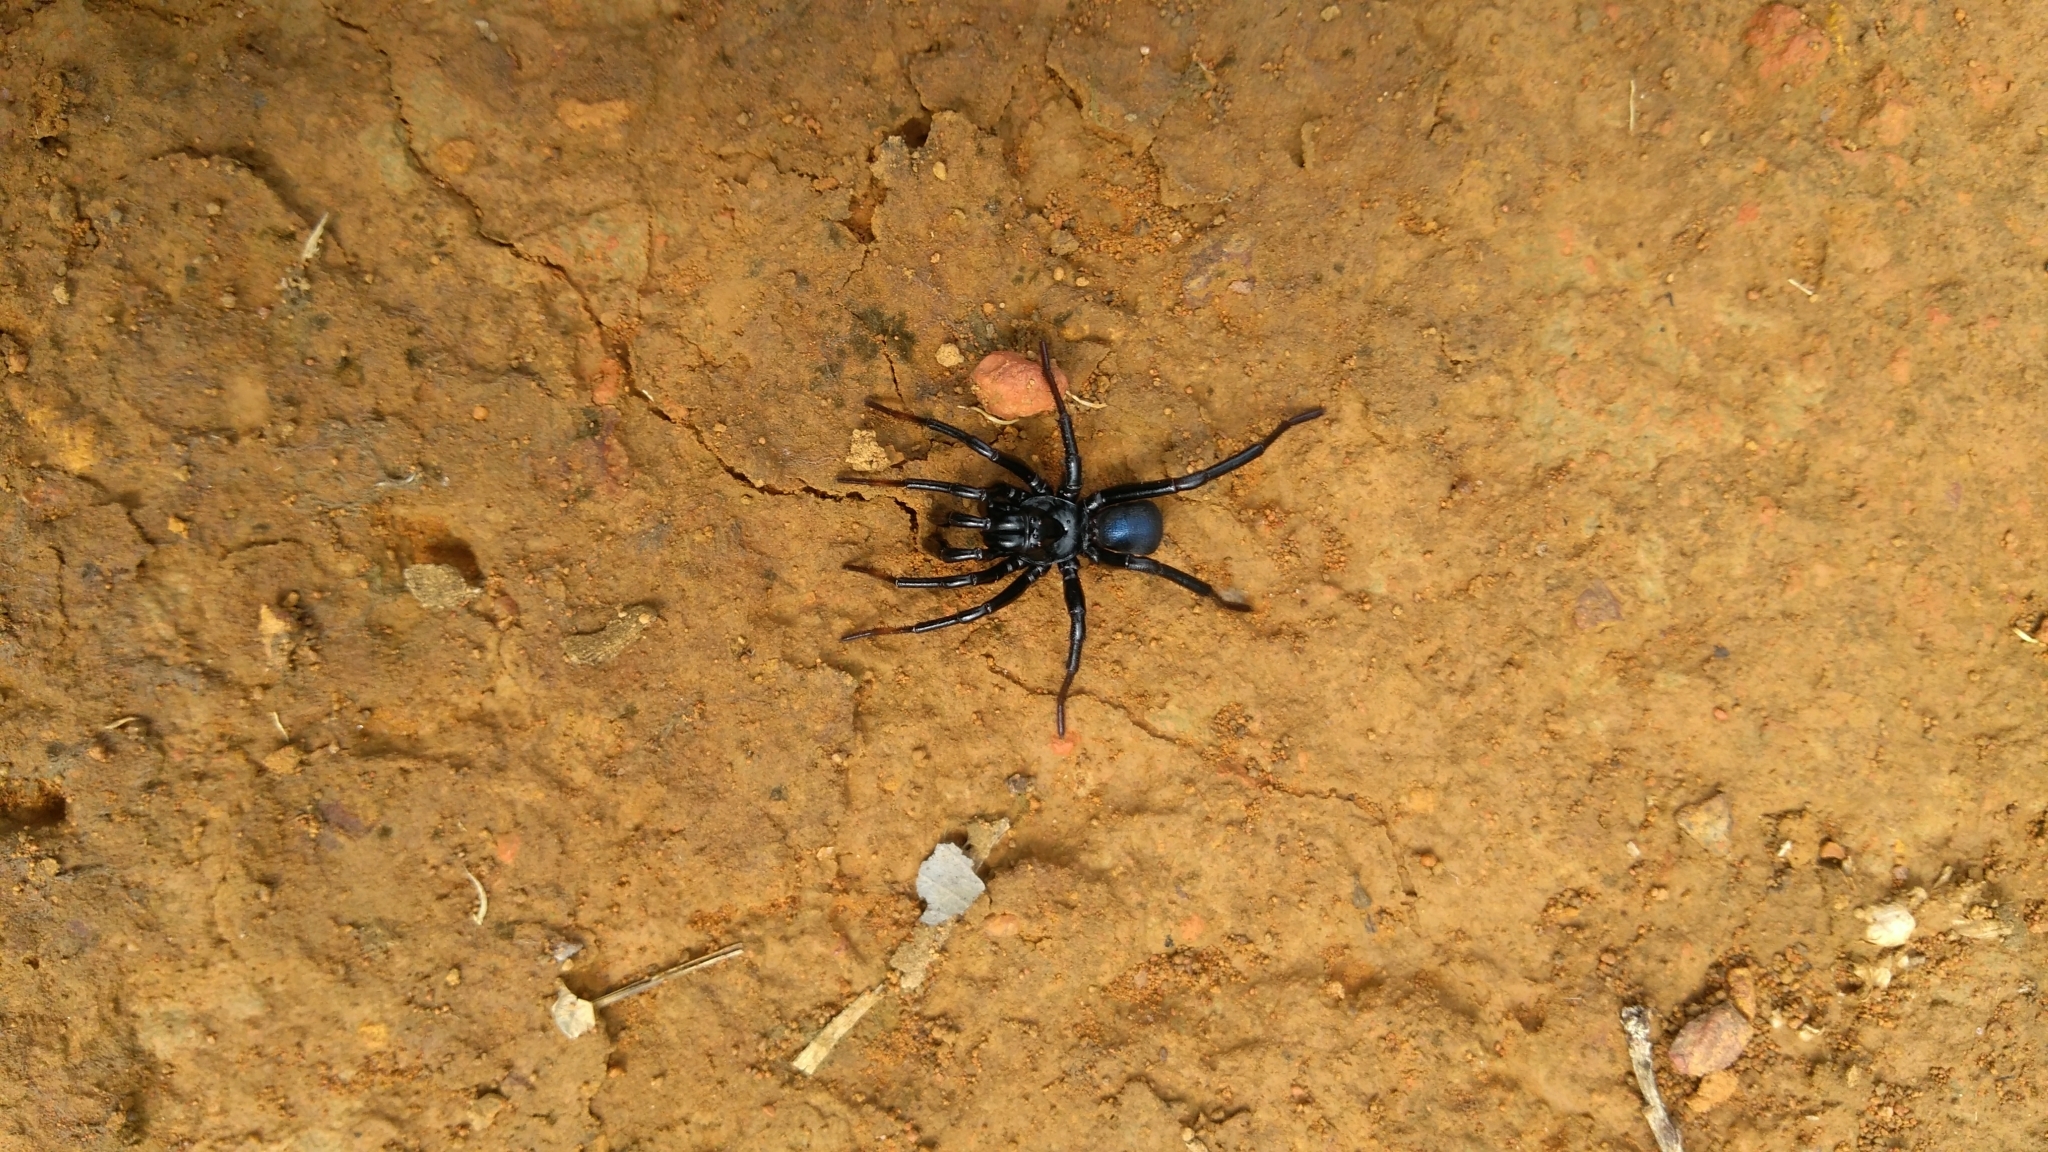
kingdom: Animalia
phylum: Arthropoda
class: Arachnida
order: Araneae
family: Actinopodidae
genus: Actinopus
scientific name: Actinopus candango
